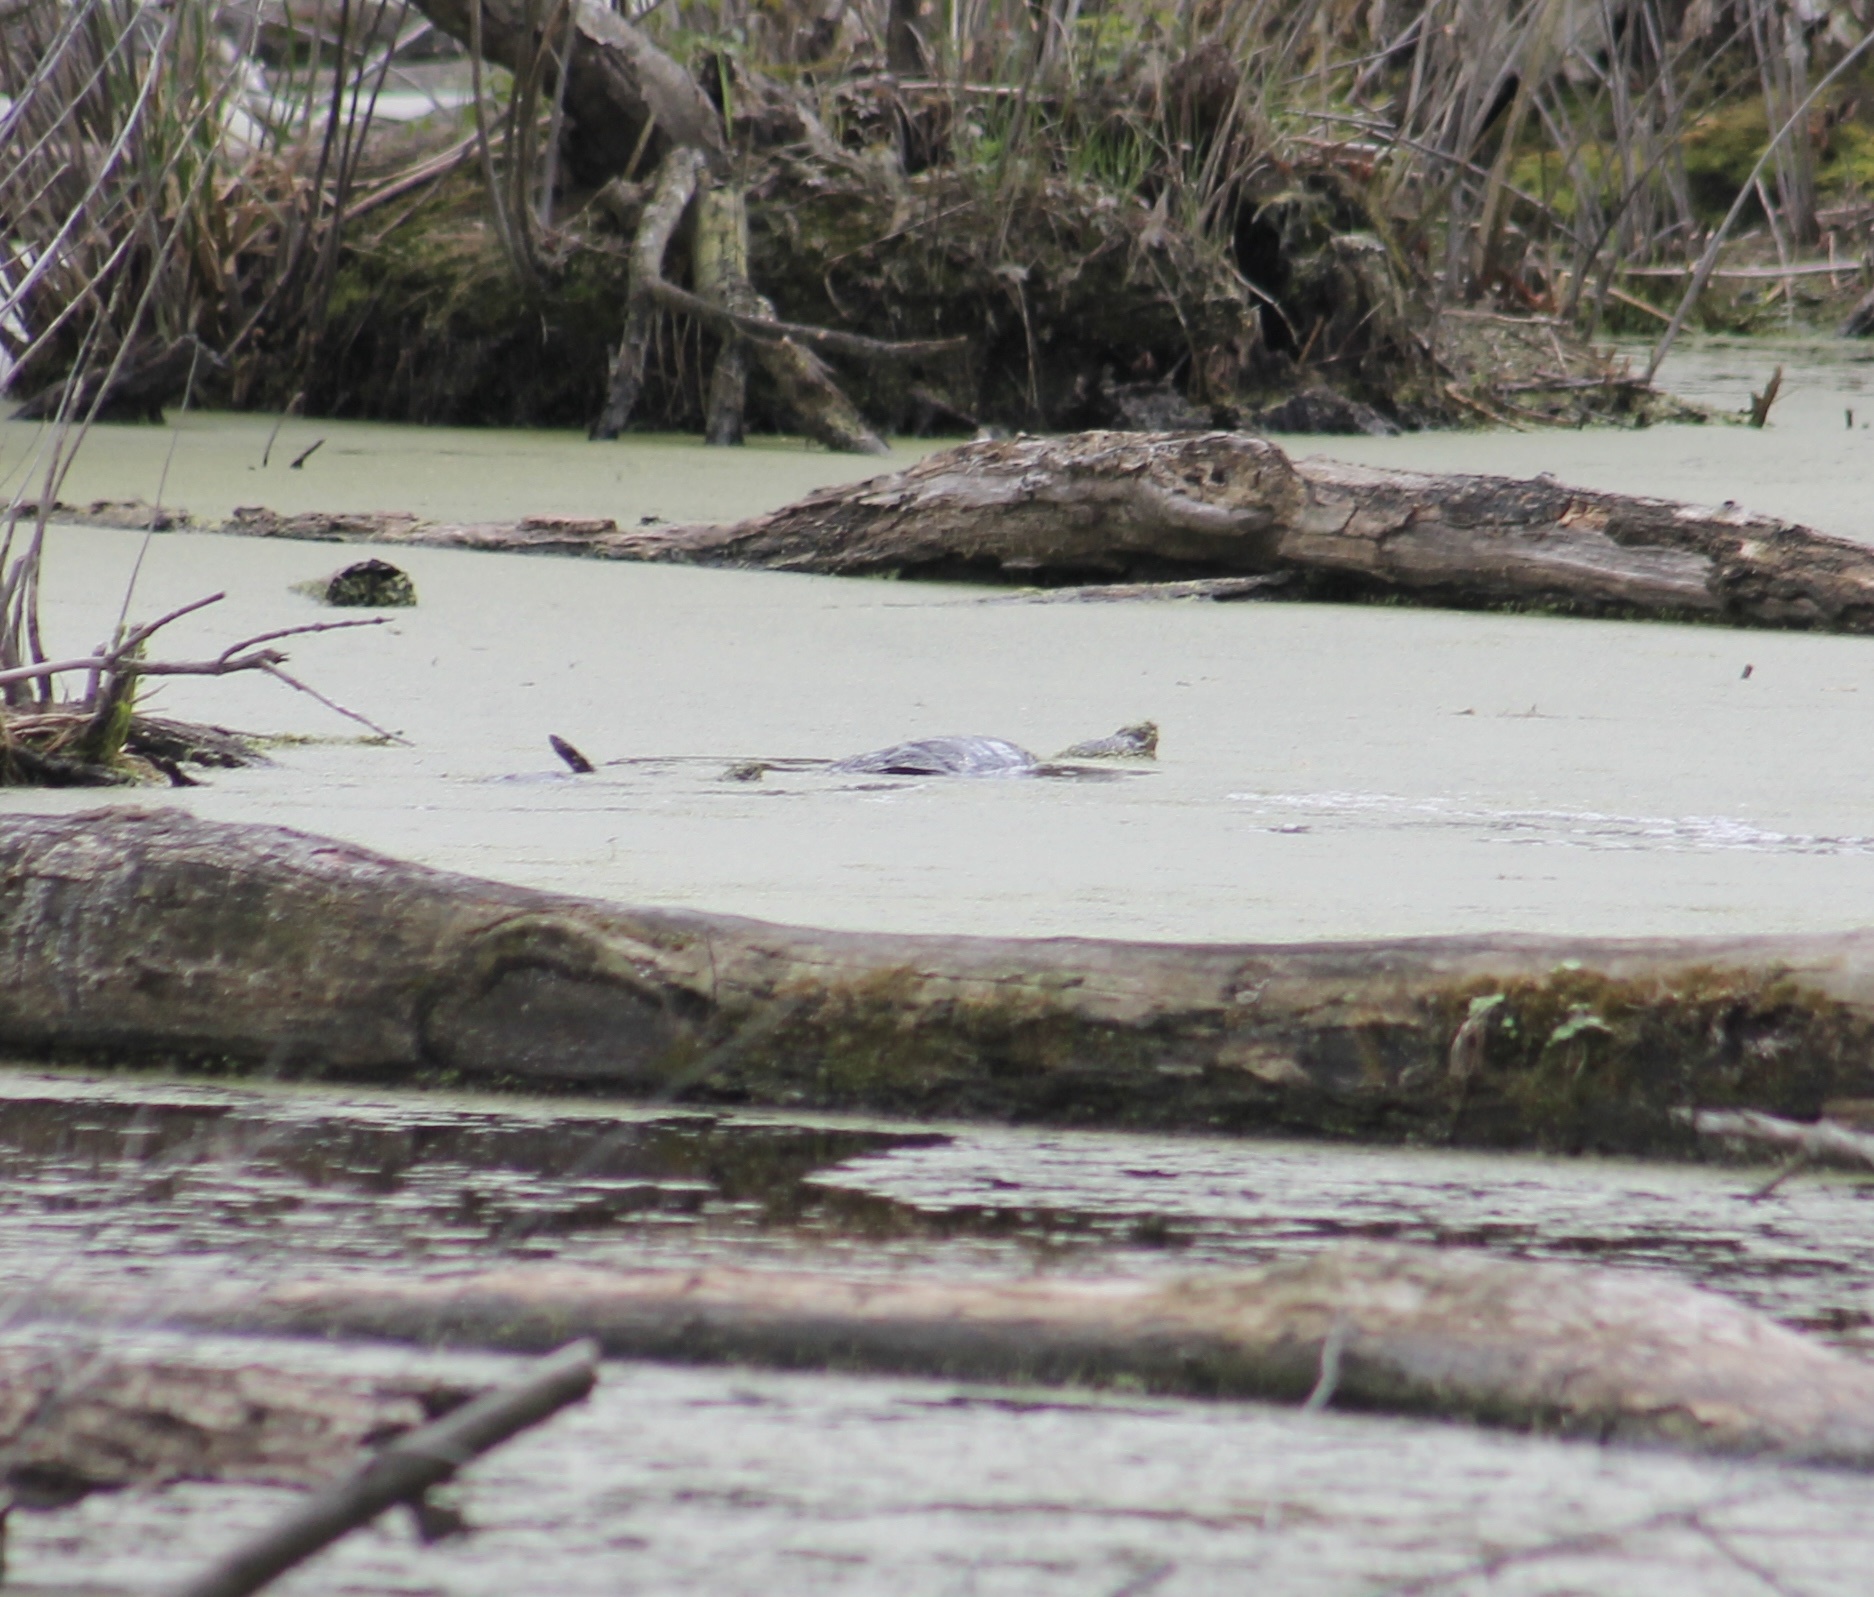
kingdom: Animalia
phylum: Chordata
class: Testudines
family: Chelydridae
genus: Chelydra
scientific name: Chelydra serpentina
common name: Common snapping turtle
